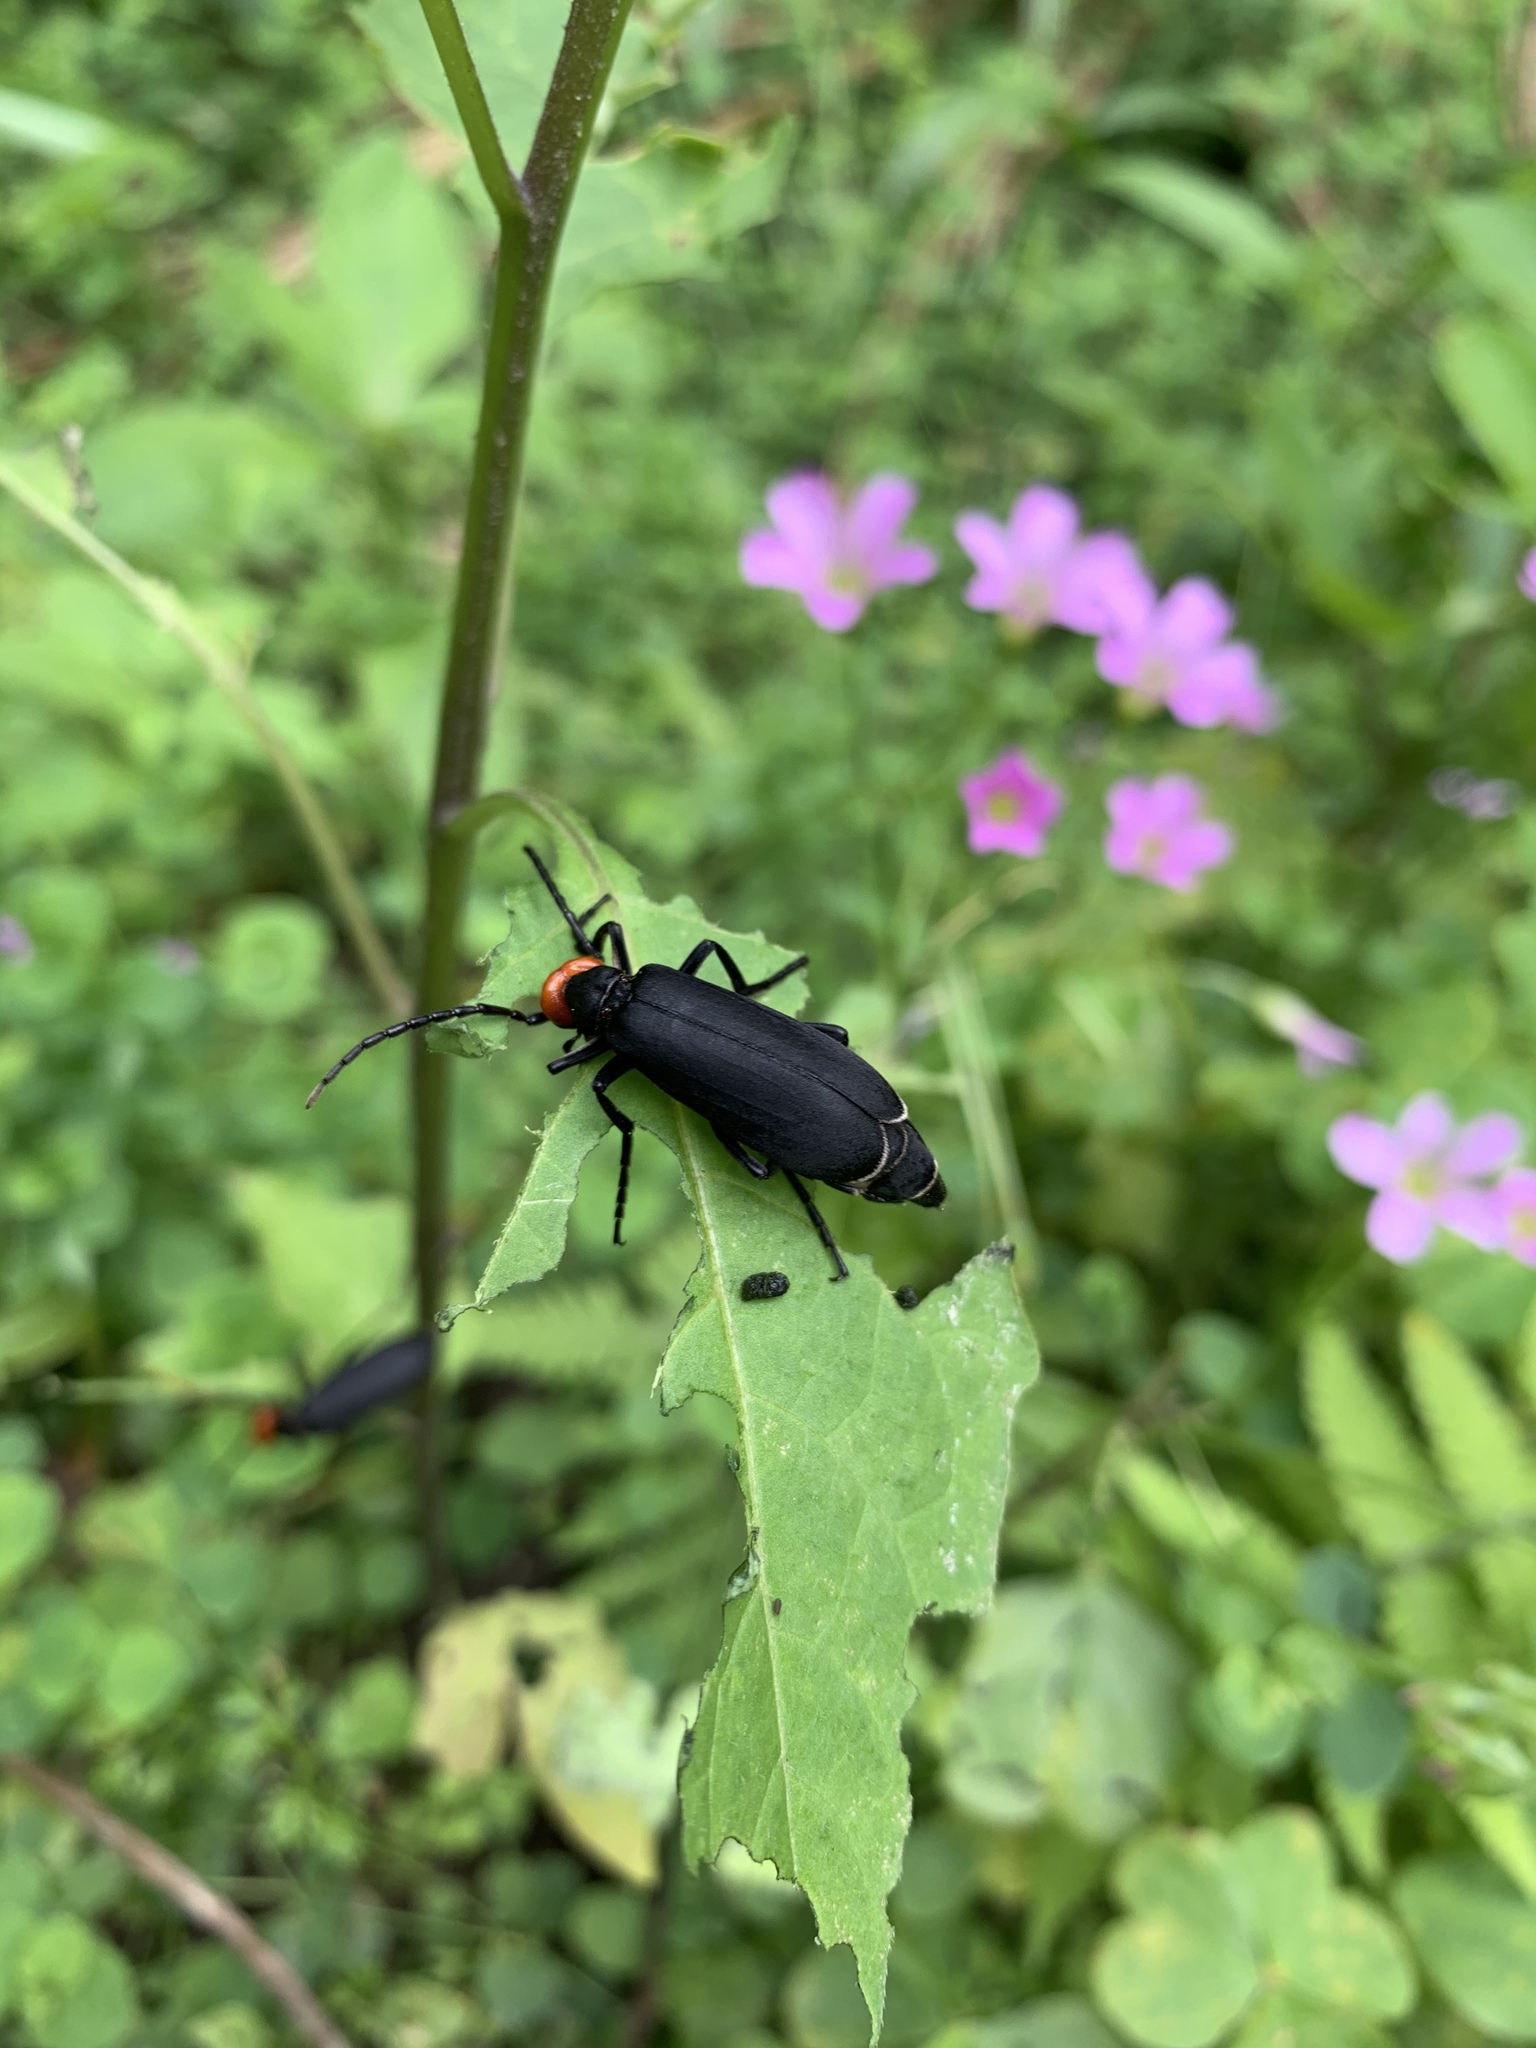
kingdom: Animalia
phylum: Arthropoda
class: Insecta
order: Coleoptera
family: Meloidae
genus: Epicauta
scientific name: Epicauta hirticornis
